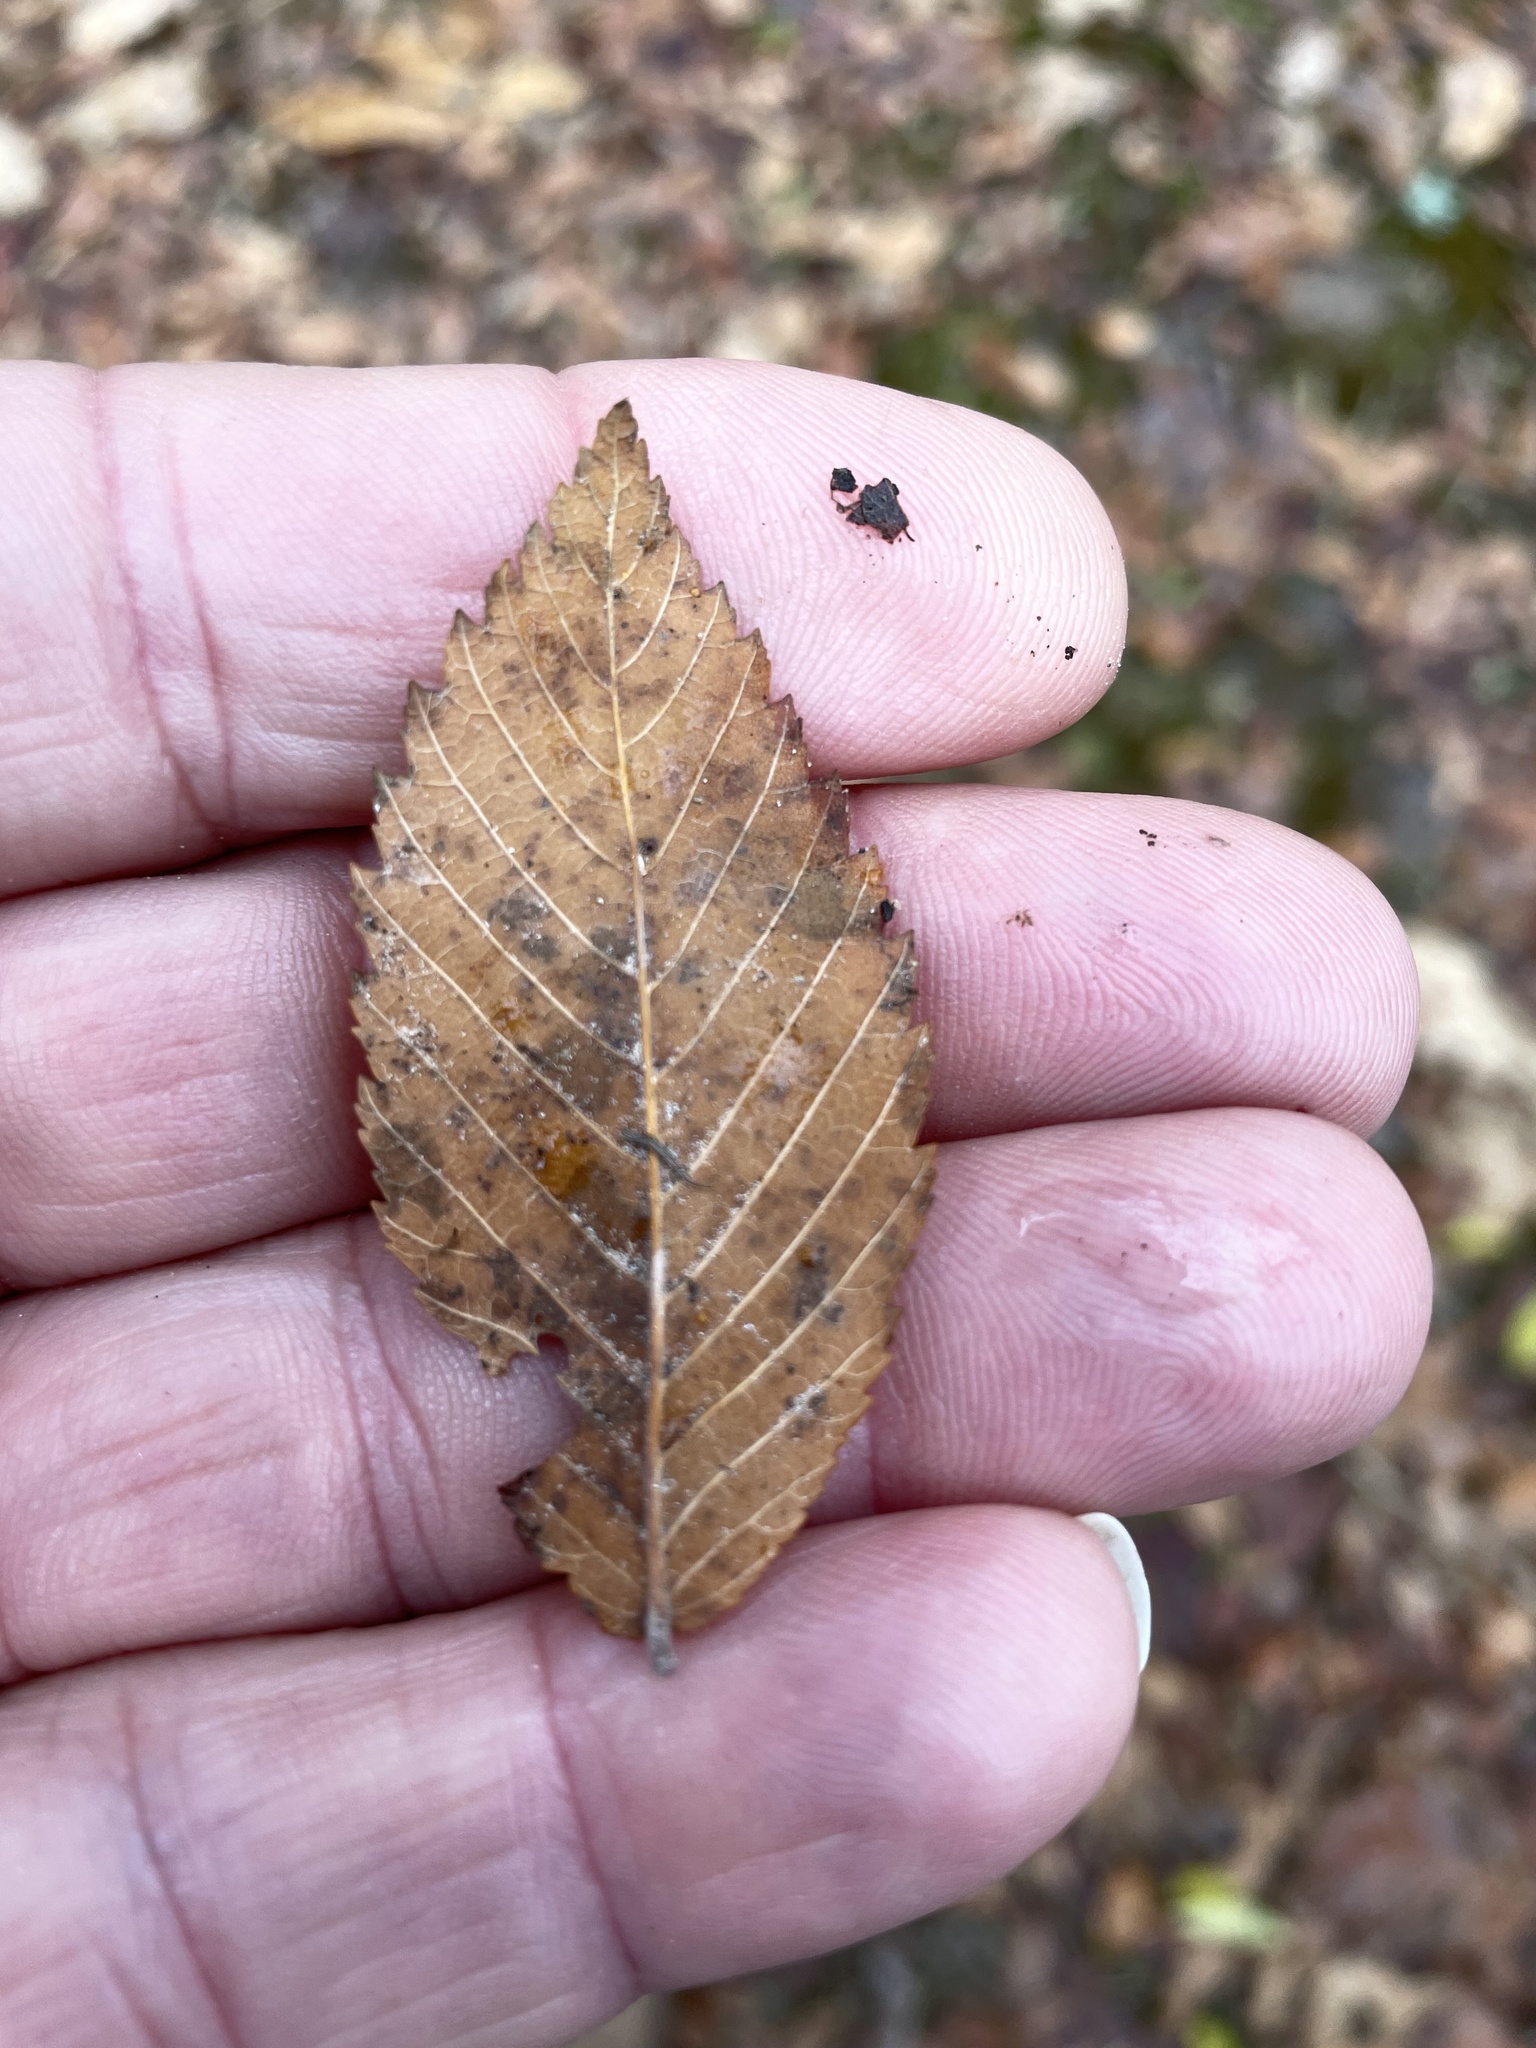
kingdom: Plantae
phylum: Tracheophyta
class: Magnoliopsida
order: Rosales
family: Ulmaceae
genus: Ulmus
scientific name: Ulmus alata
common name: Winged elm
